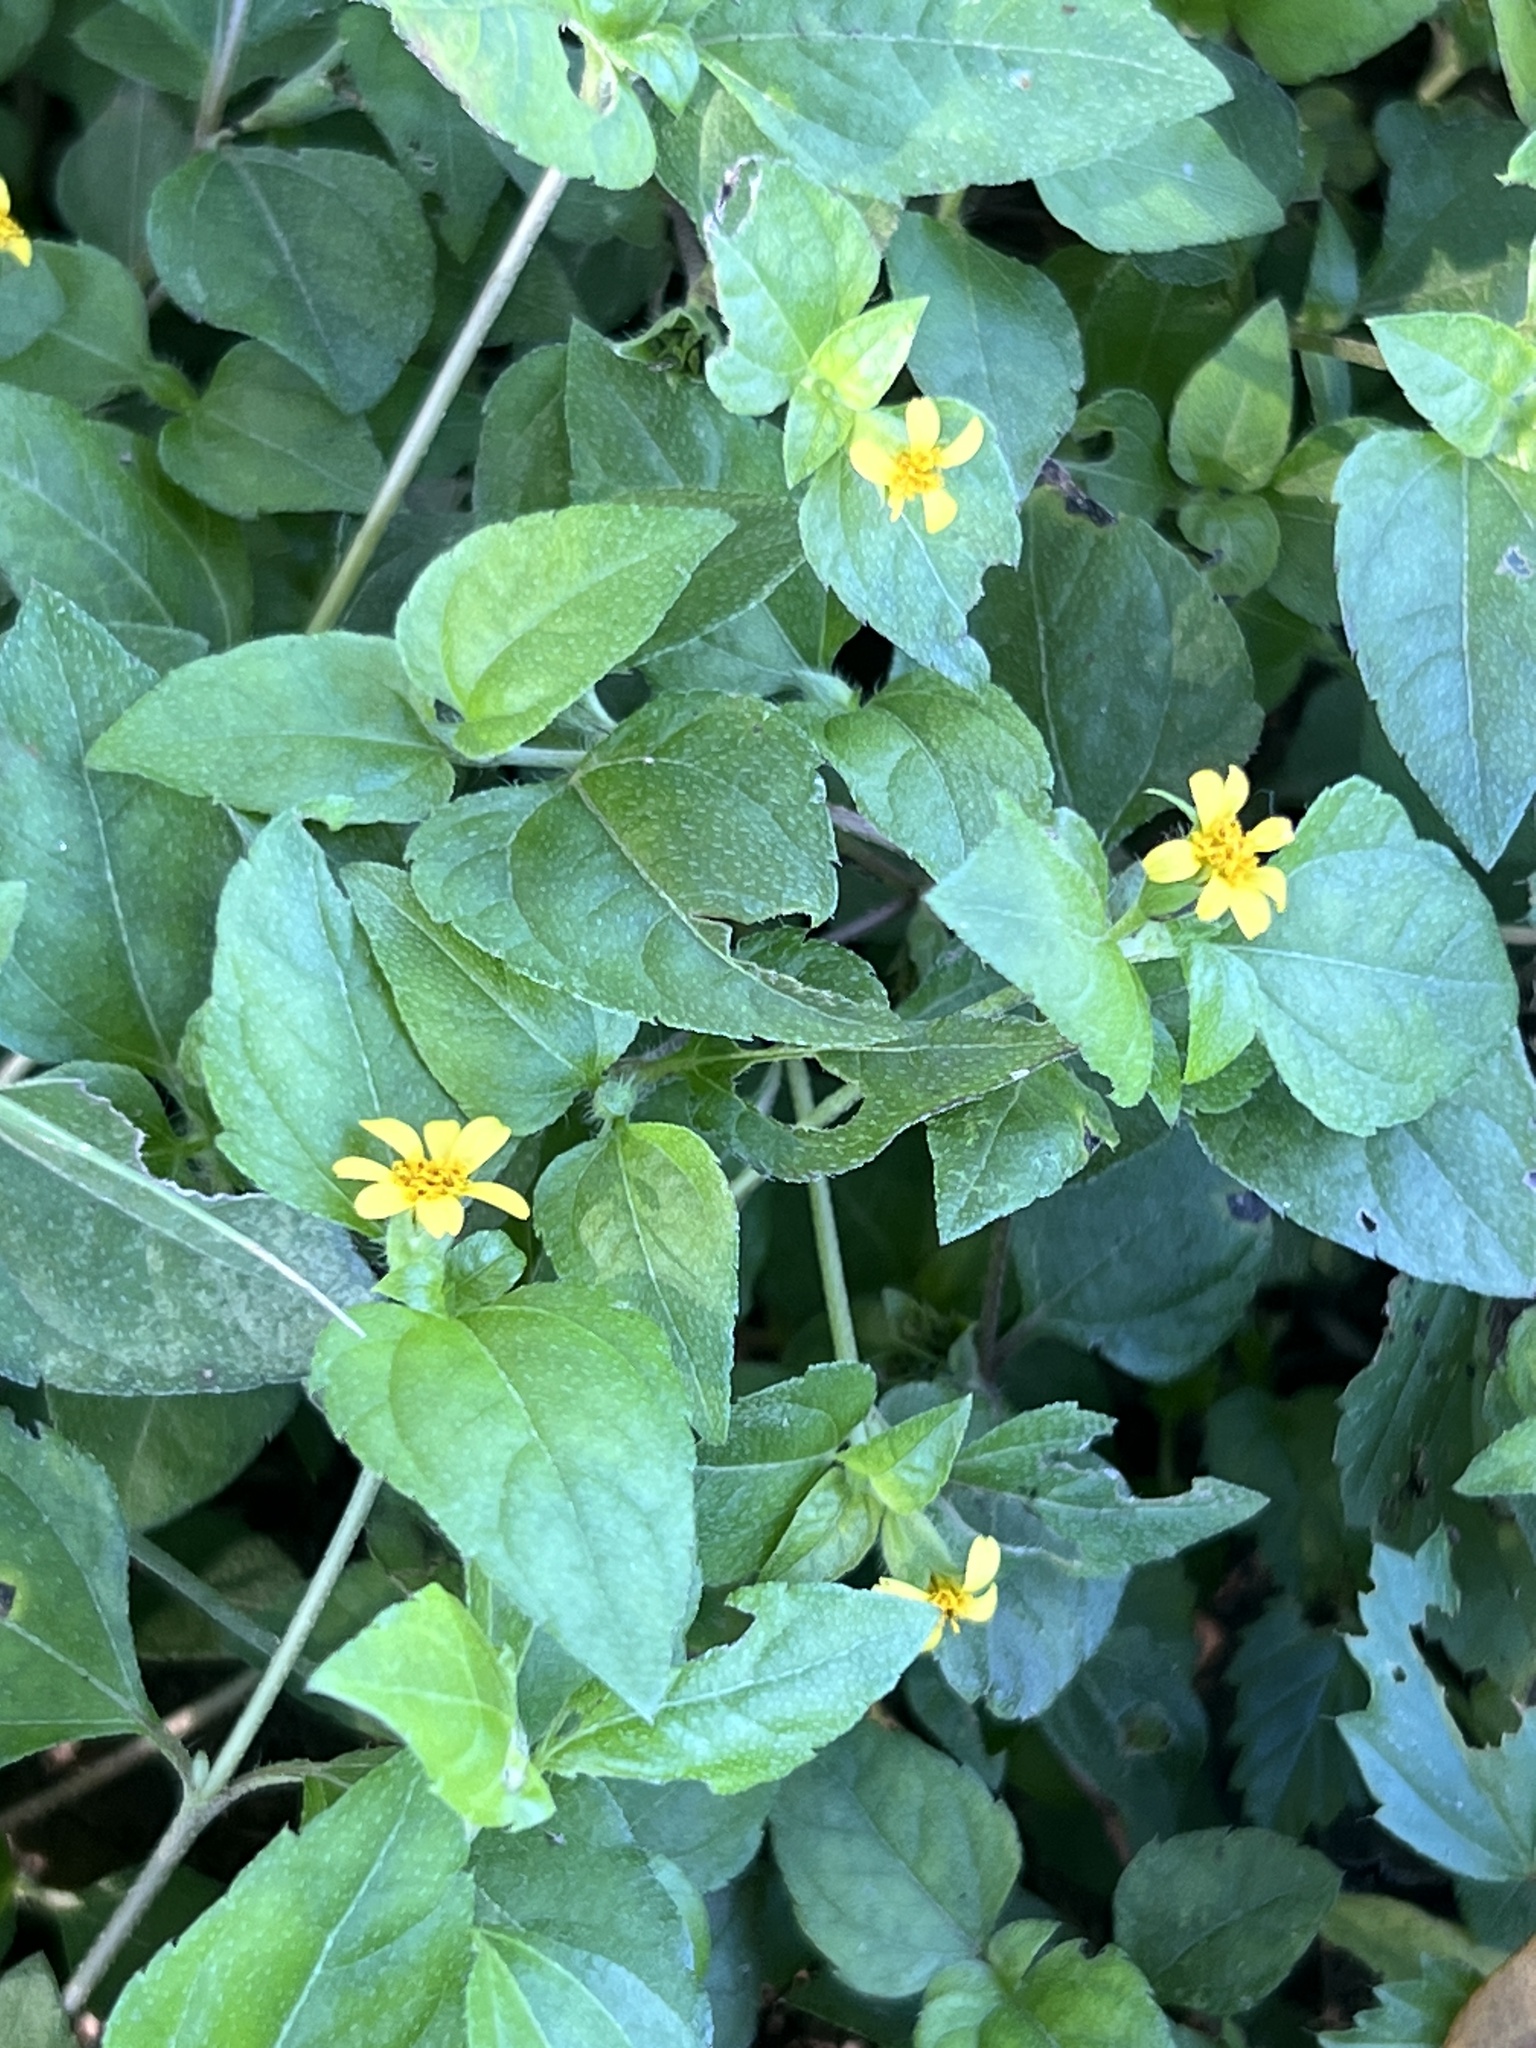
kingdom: Plantae
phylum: Tracheophyta
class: Magnoliopsida
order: Asterales
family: Asteraceae
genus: Calyptocarpus
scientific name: Calyptocarpus vialis
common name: Straggler daisy
